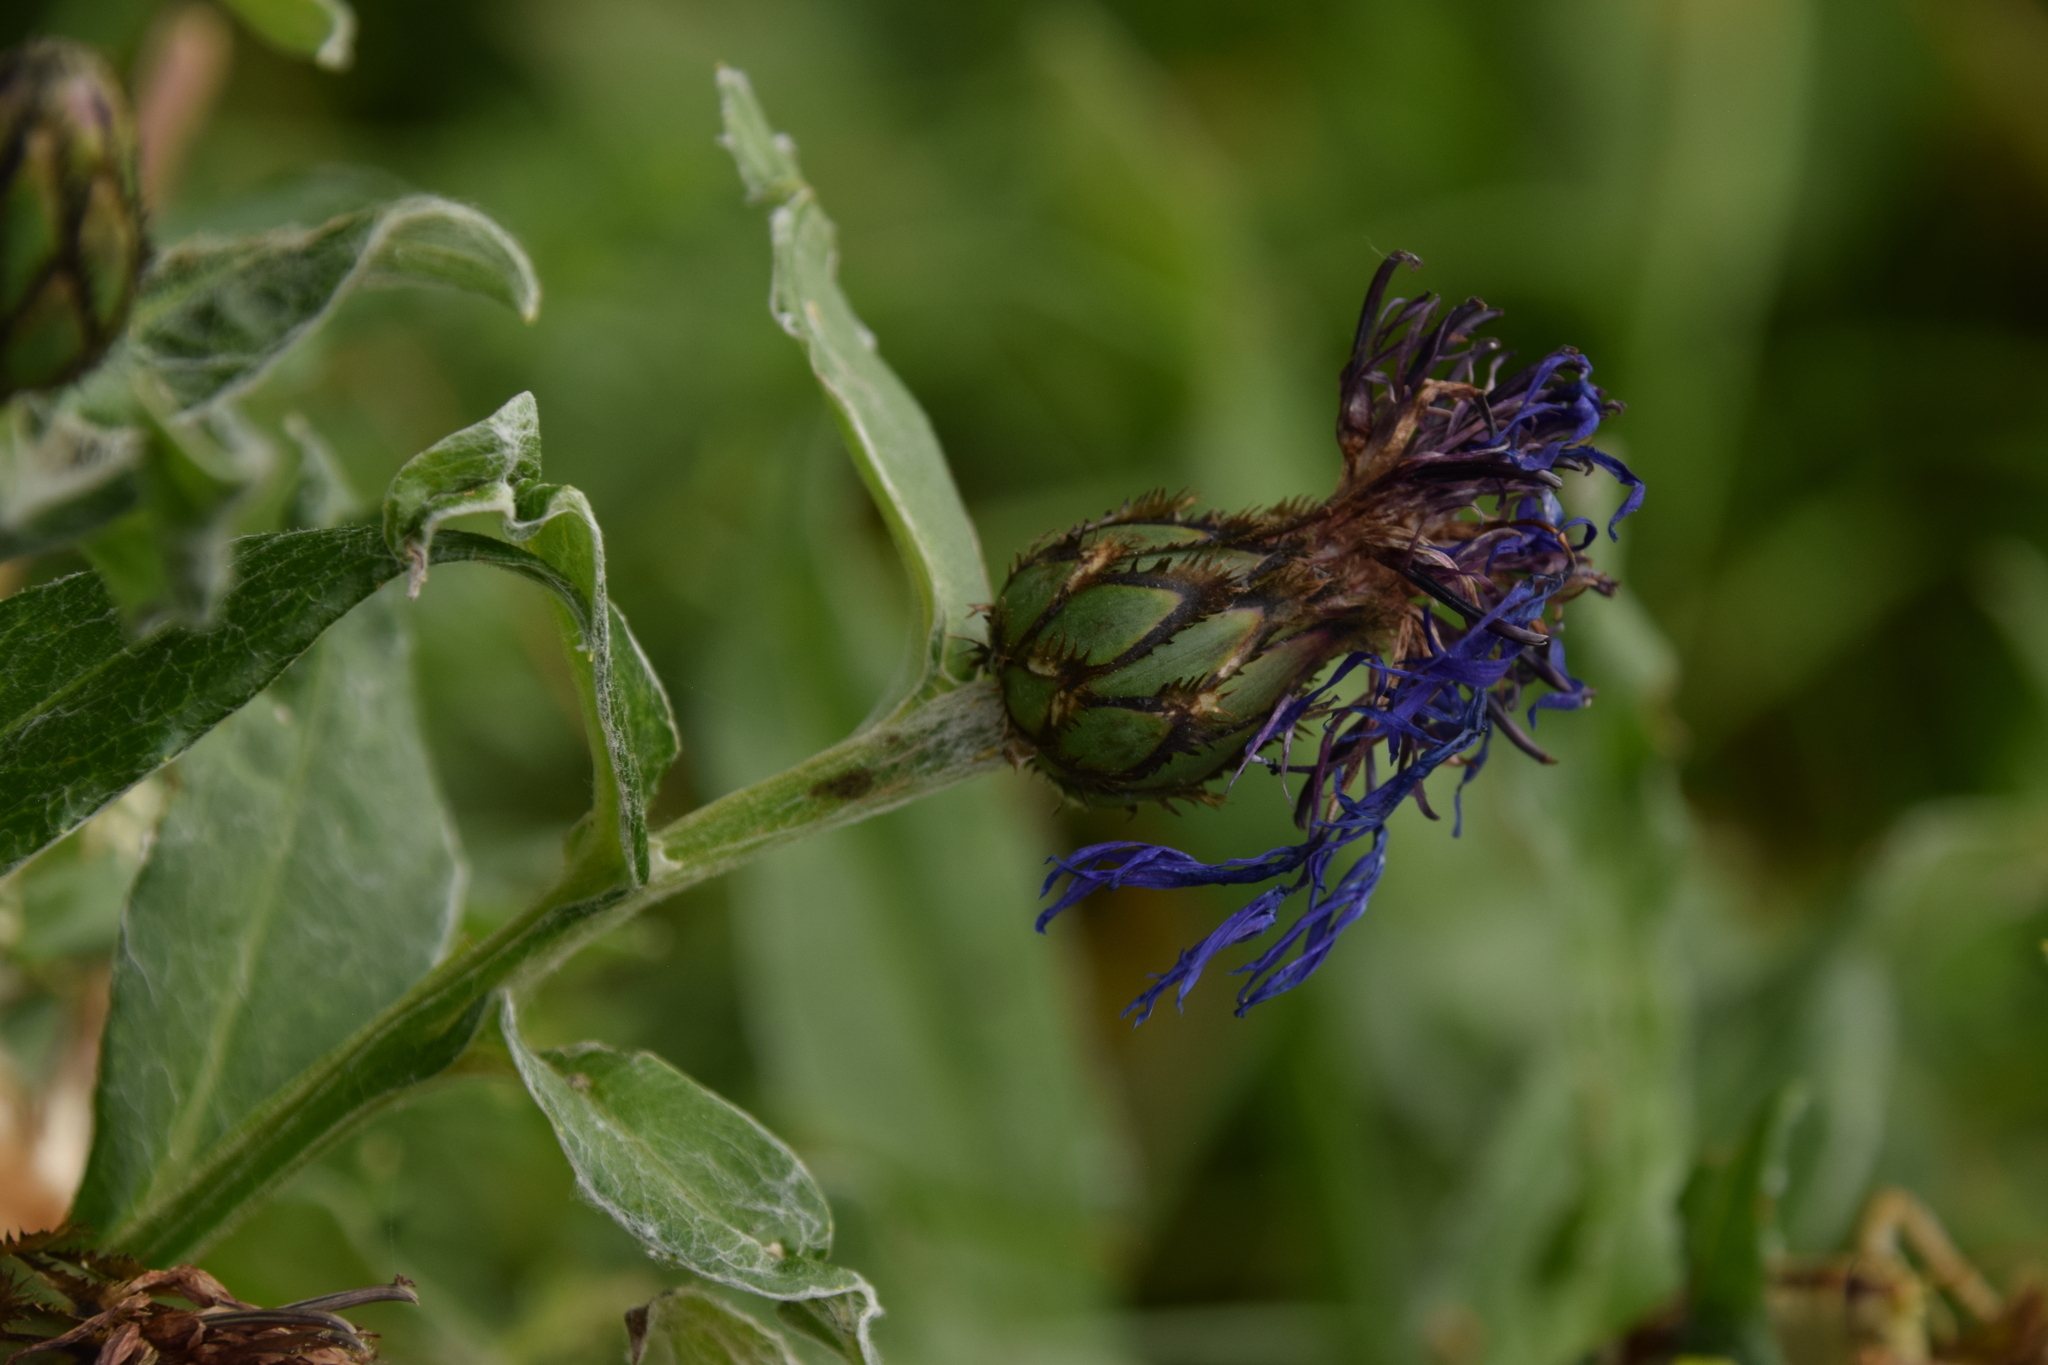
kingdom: Plantae
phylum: Tracheophyta
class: Magnoliopsida
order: Asterales
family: Asteraceae
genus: Centaurea
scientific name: Centaurea montana
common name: Perennial cornflower
